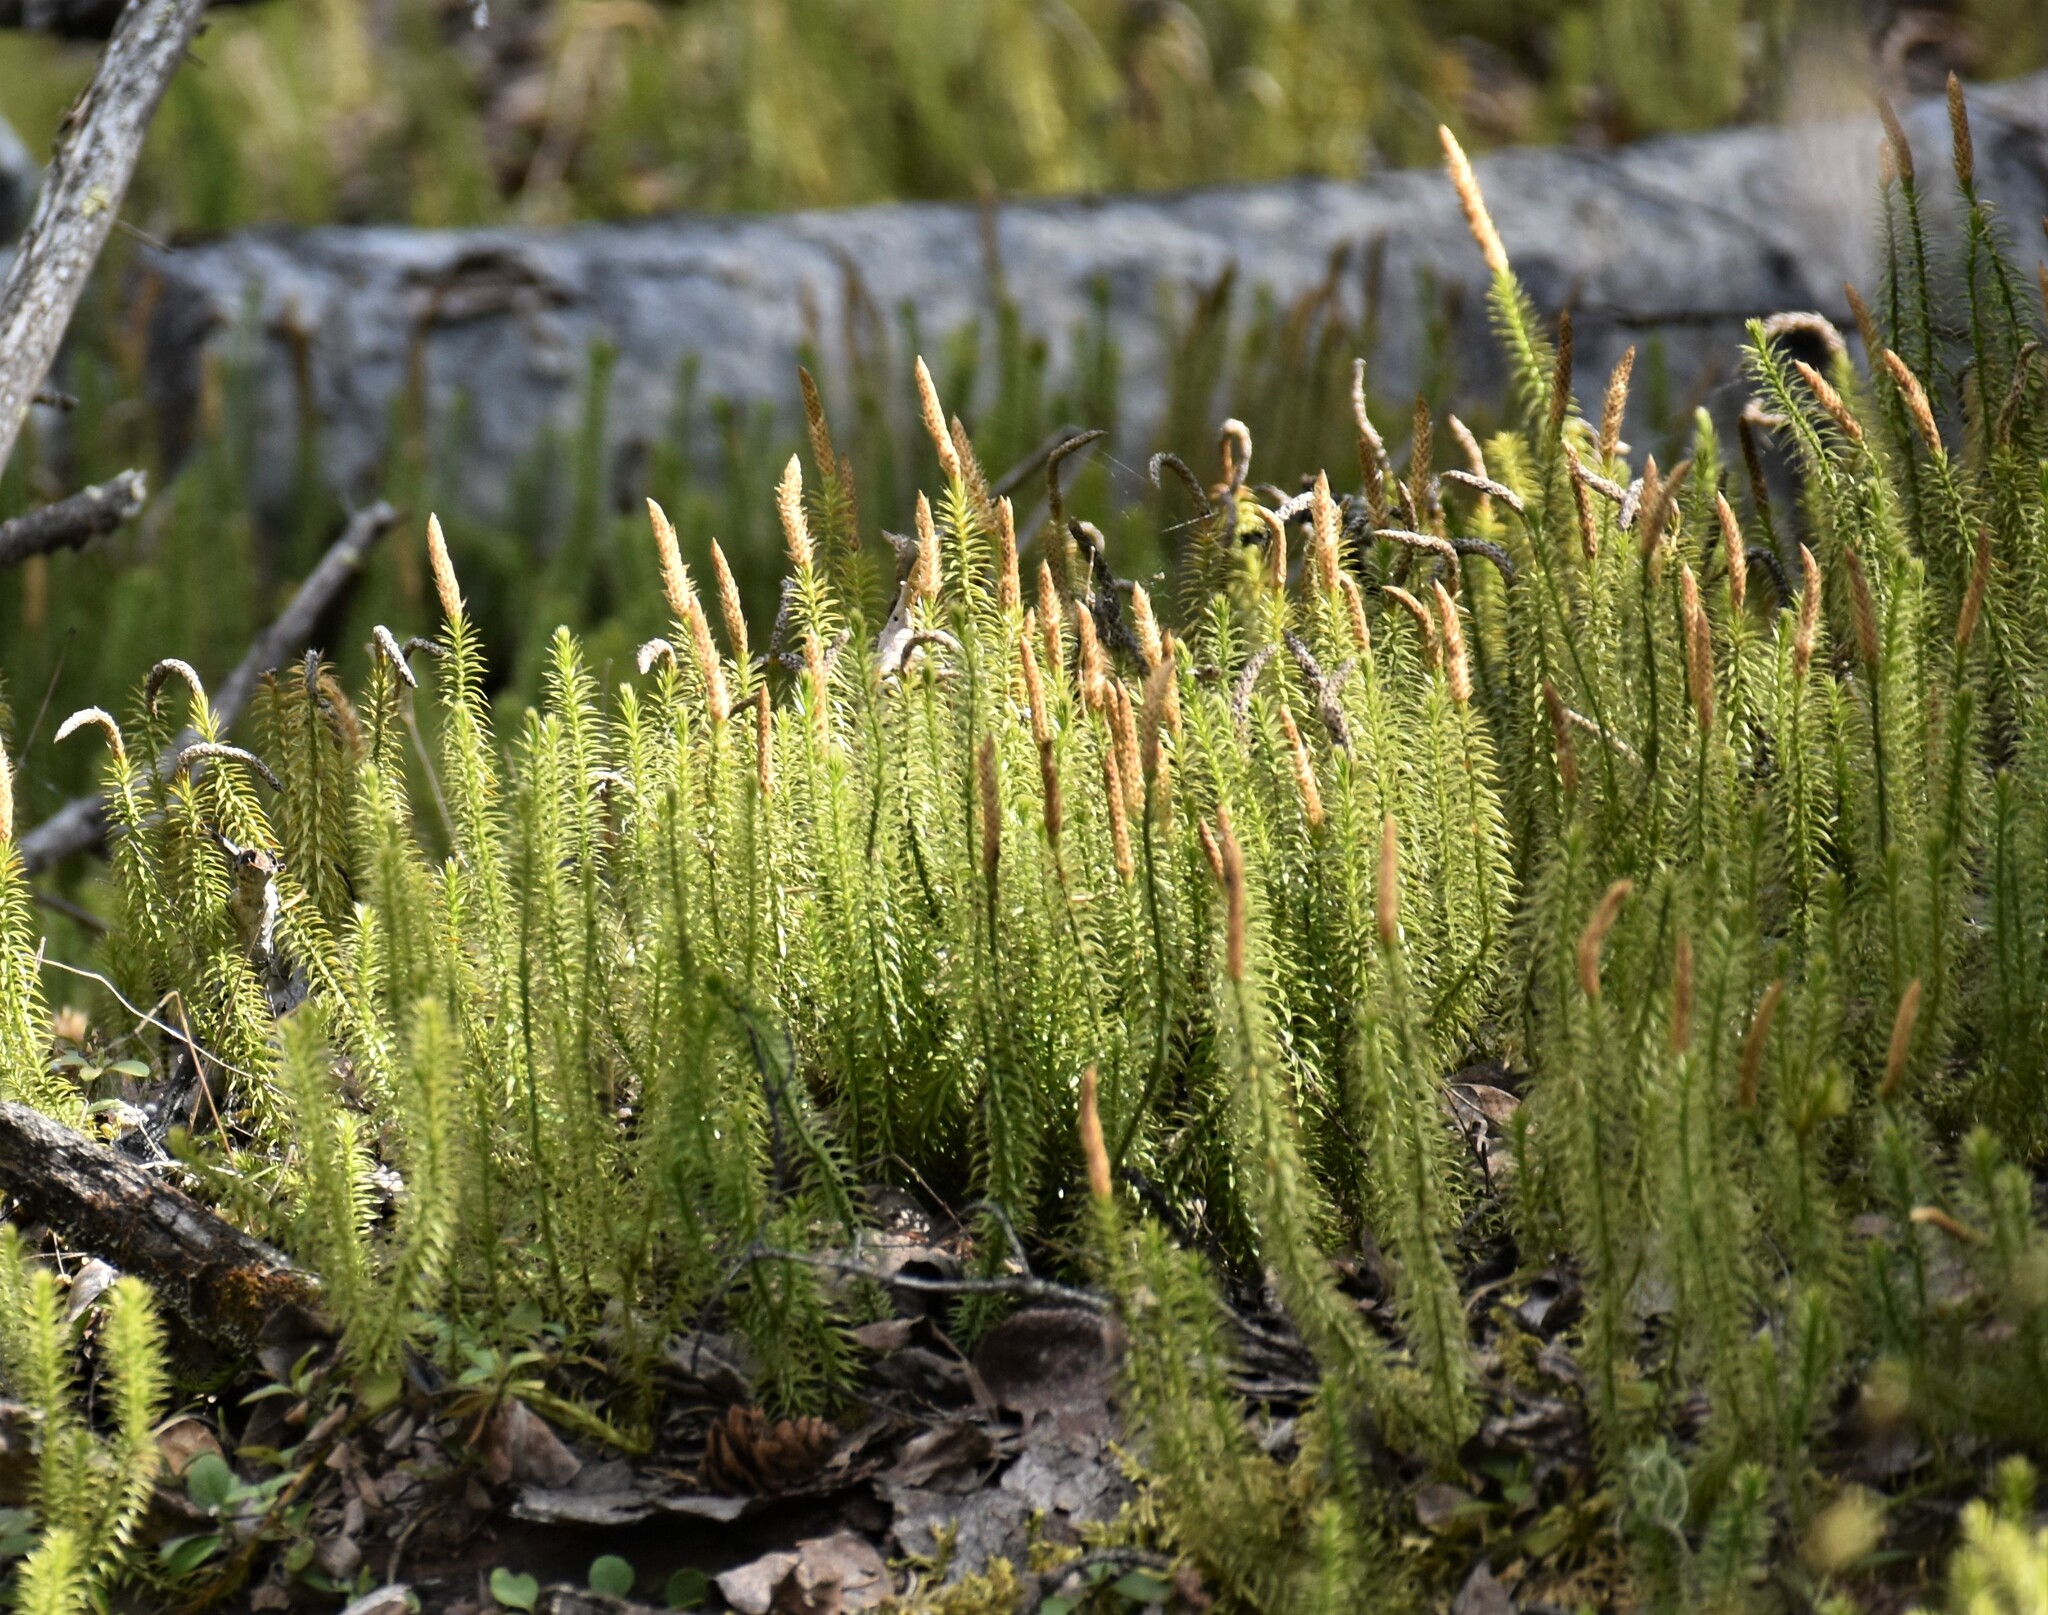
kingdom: Plantae
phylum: Tracheophyta
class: Lycopodiopsida
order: Lycopodiales
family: Lycopodiaceae
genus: Spinulum
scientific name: Spinulum annotinum
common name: Interrupted club-moss
